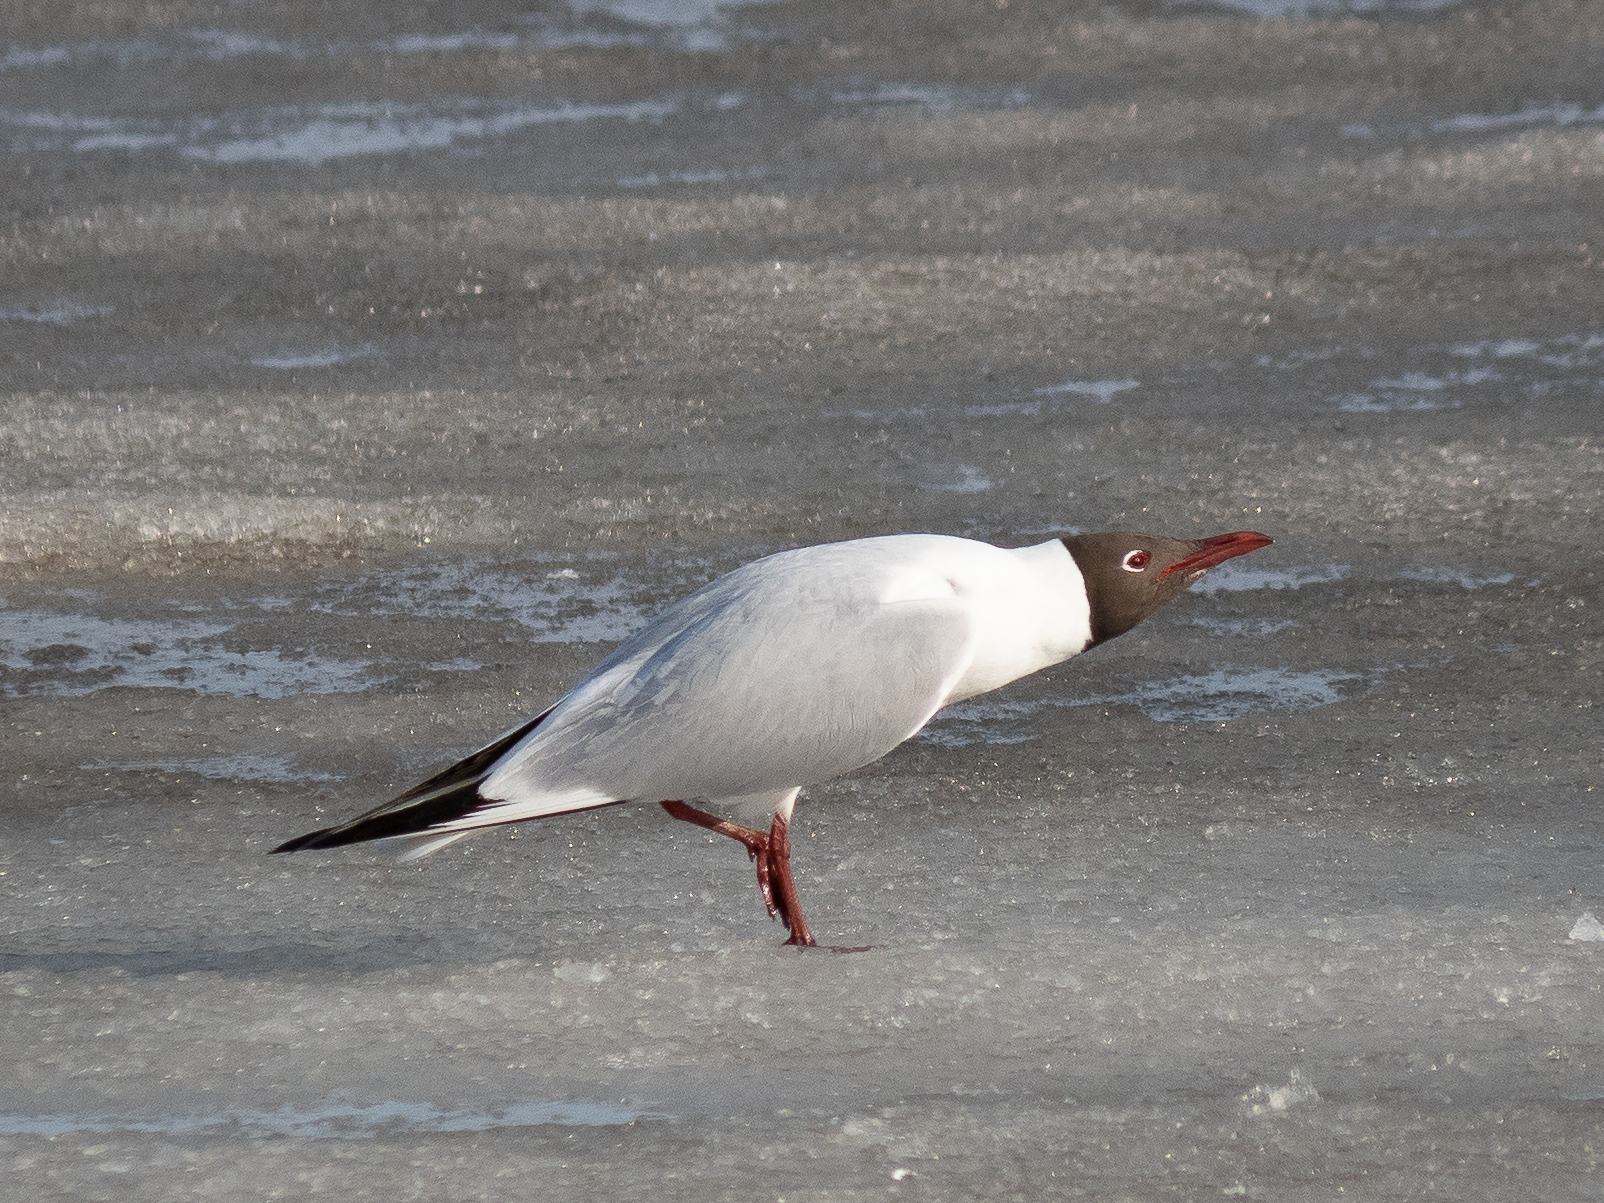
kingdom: Animalia
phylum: Chordata
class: Aves
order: Charadriiformes
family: Laridae
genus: Chroicocephalus
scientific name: Chroicocephalus ridibundus
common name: Black-headed gull
